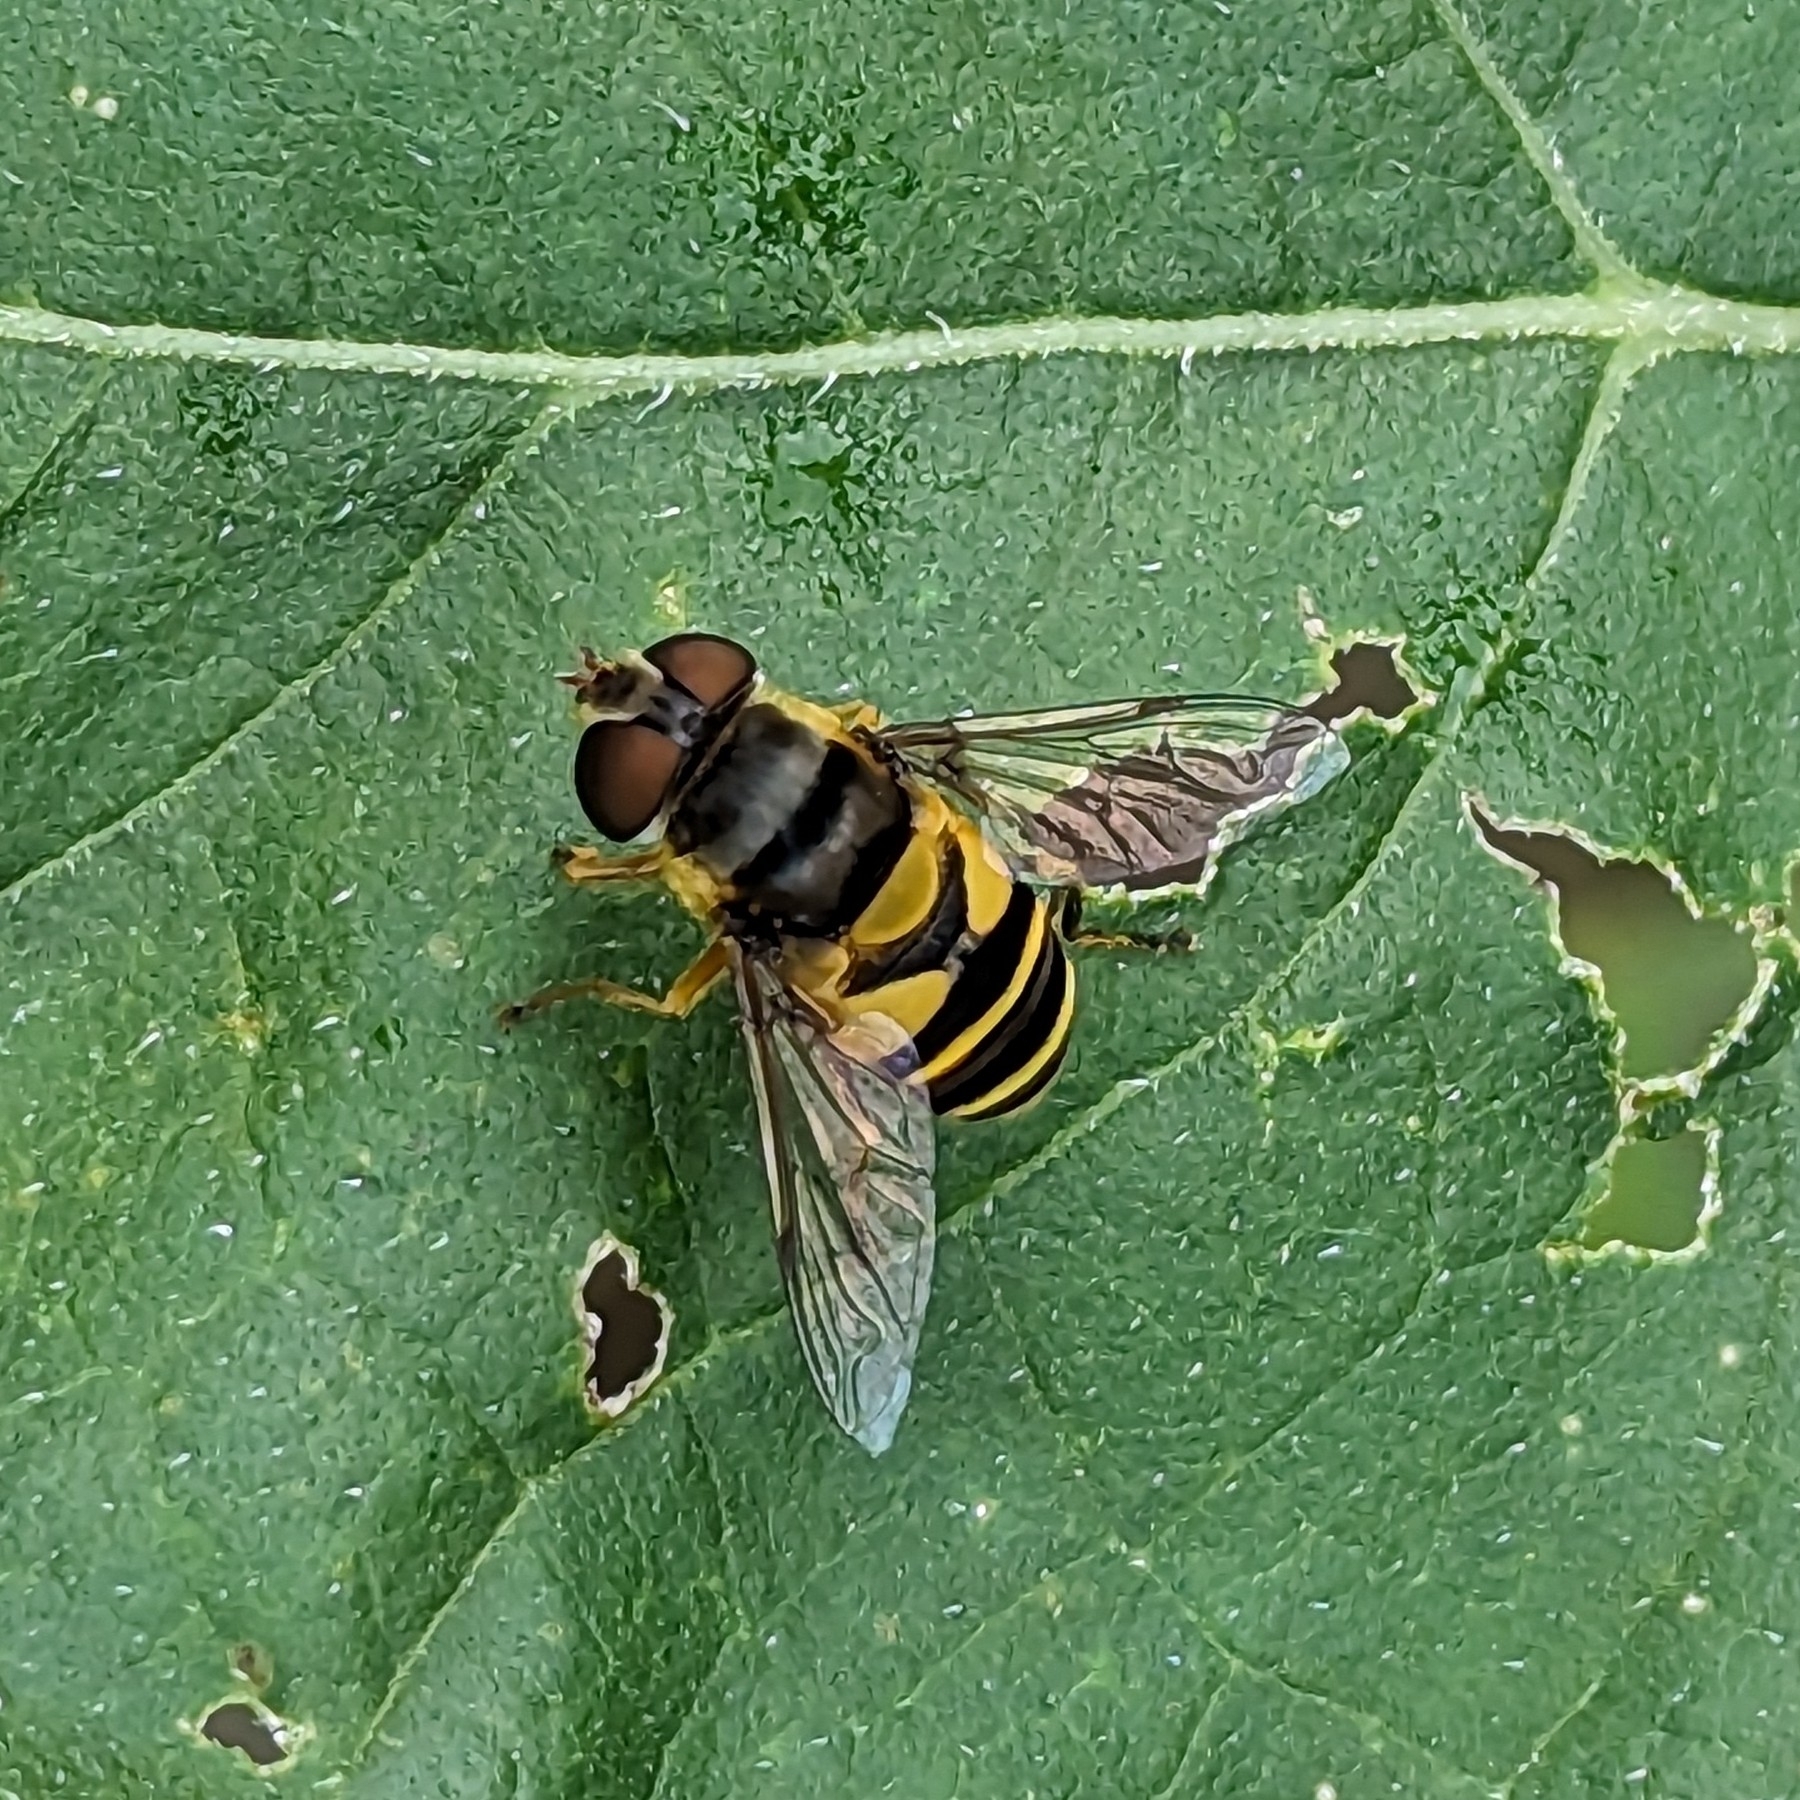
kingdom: Animalia
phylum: Arthropoda
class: Insecta
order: Diptera
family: Syrphidae
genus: Eristalis
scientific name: Eristalis transversa
